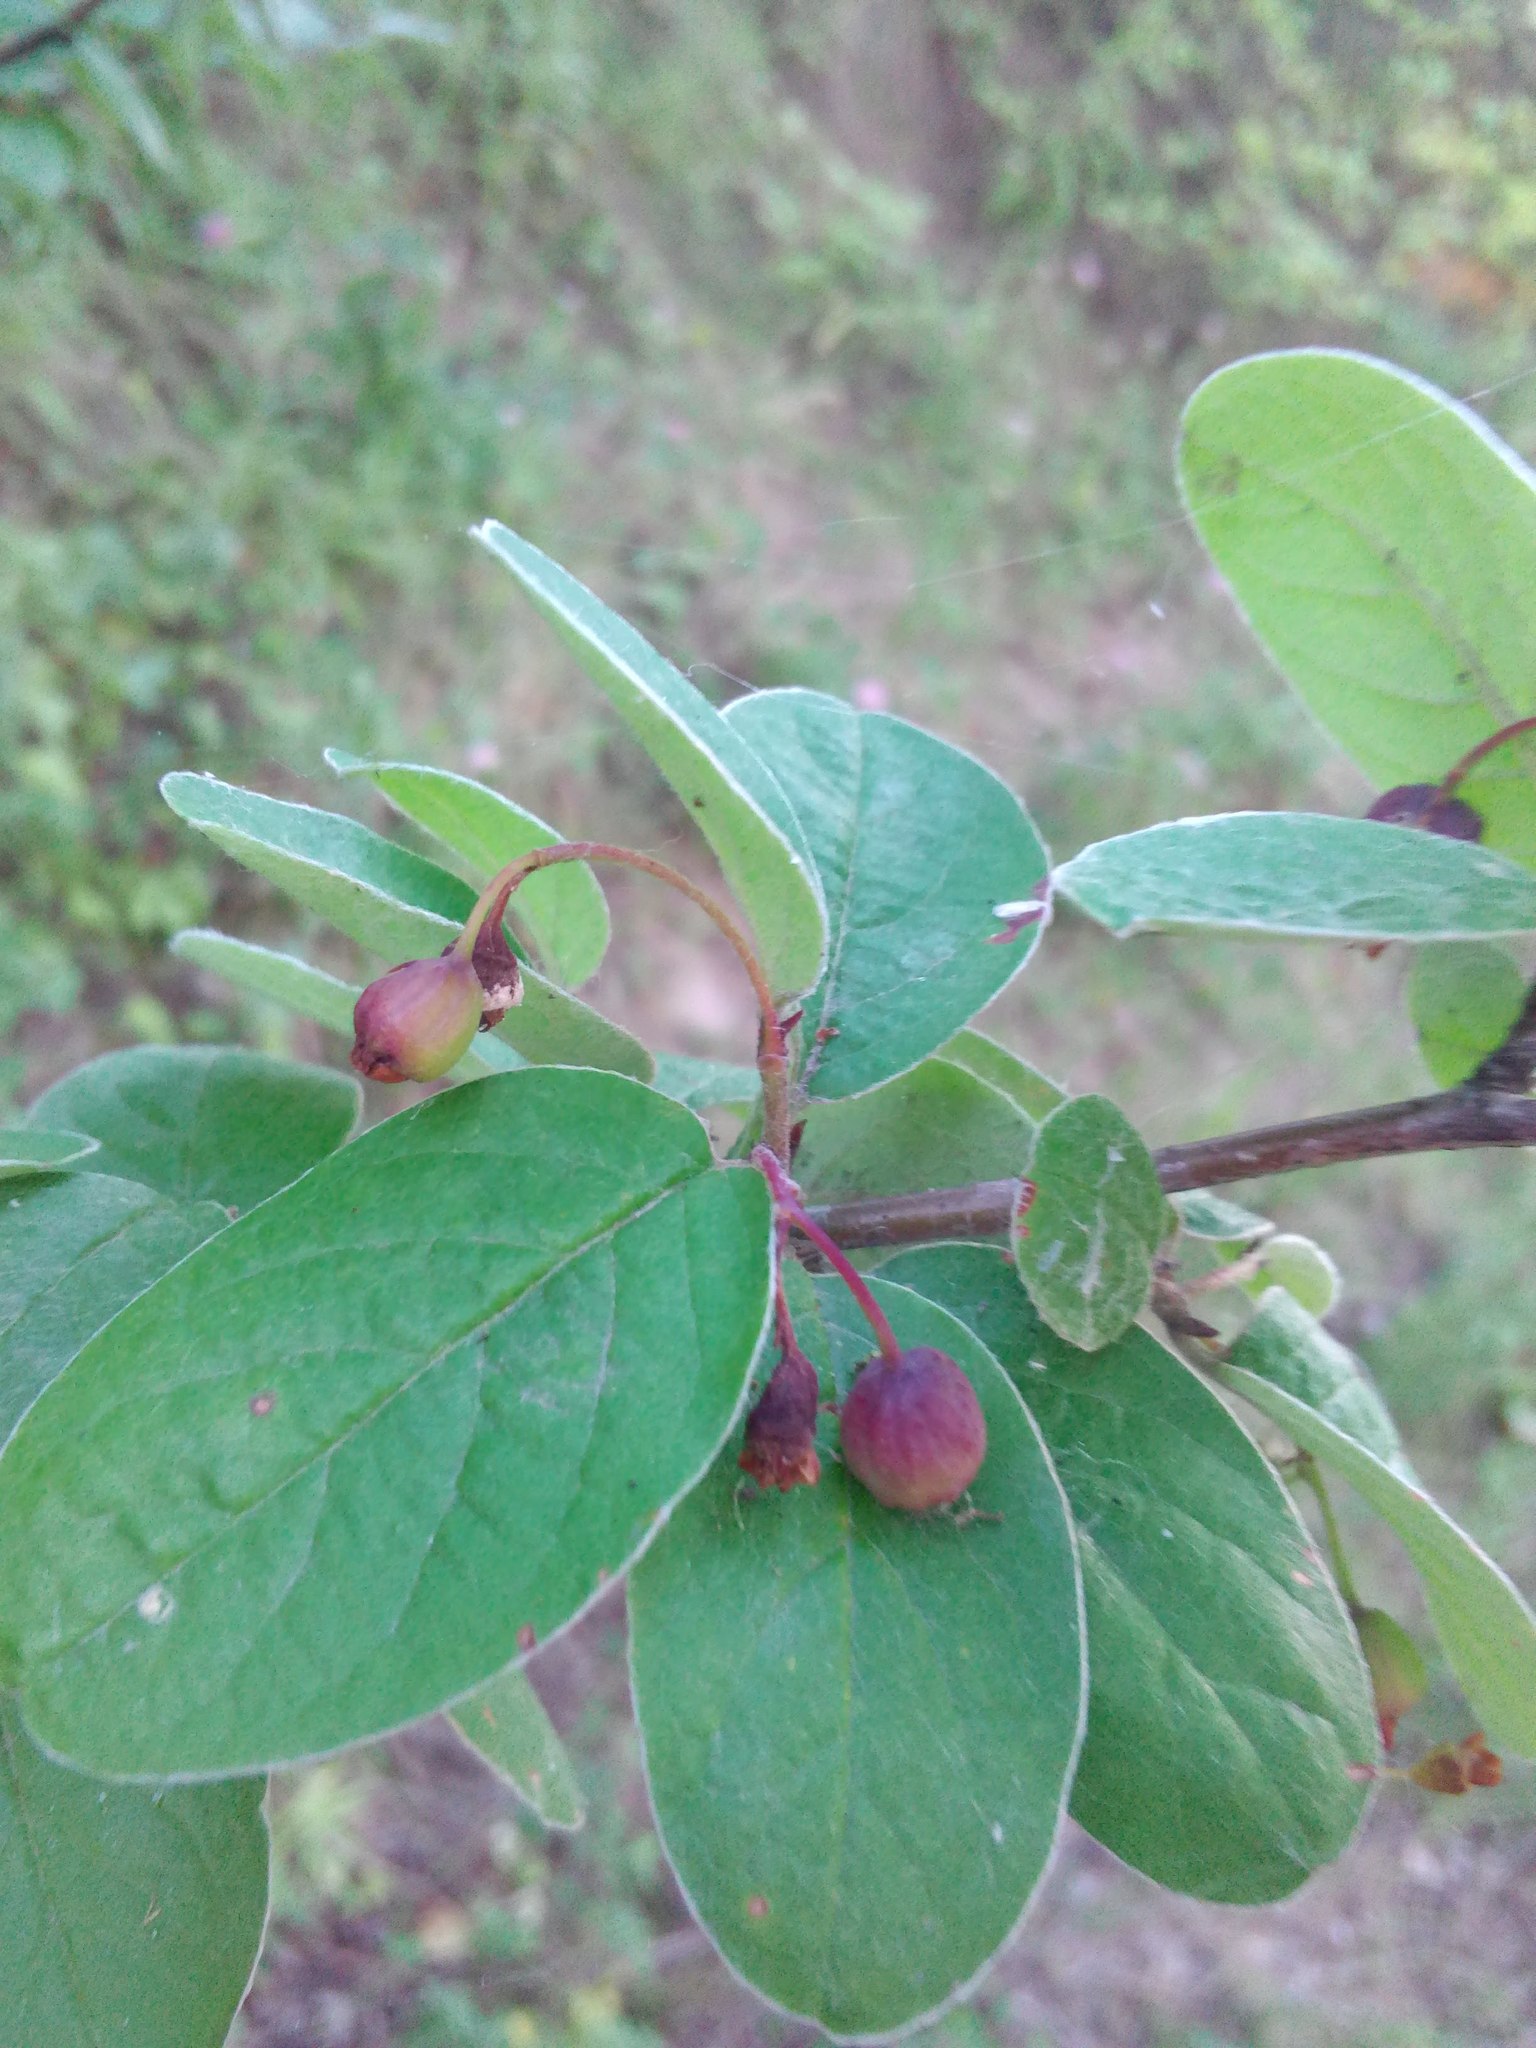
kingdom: Plantae
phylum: Tracheophyta
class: Magnoliopsida
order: Rosales
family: Rosaceae
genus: Cotoneaster
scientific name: Cotoneaster melanocarpus
